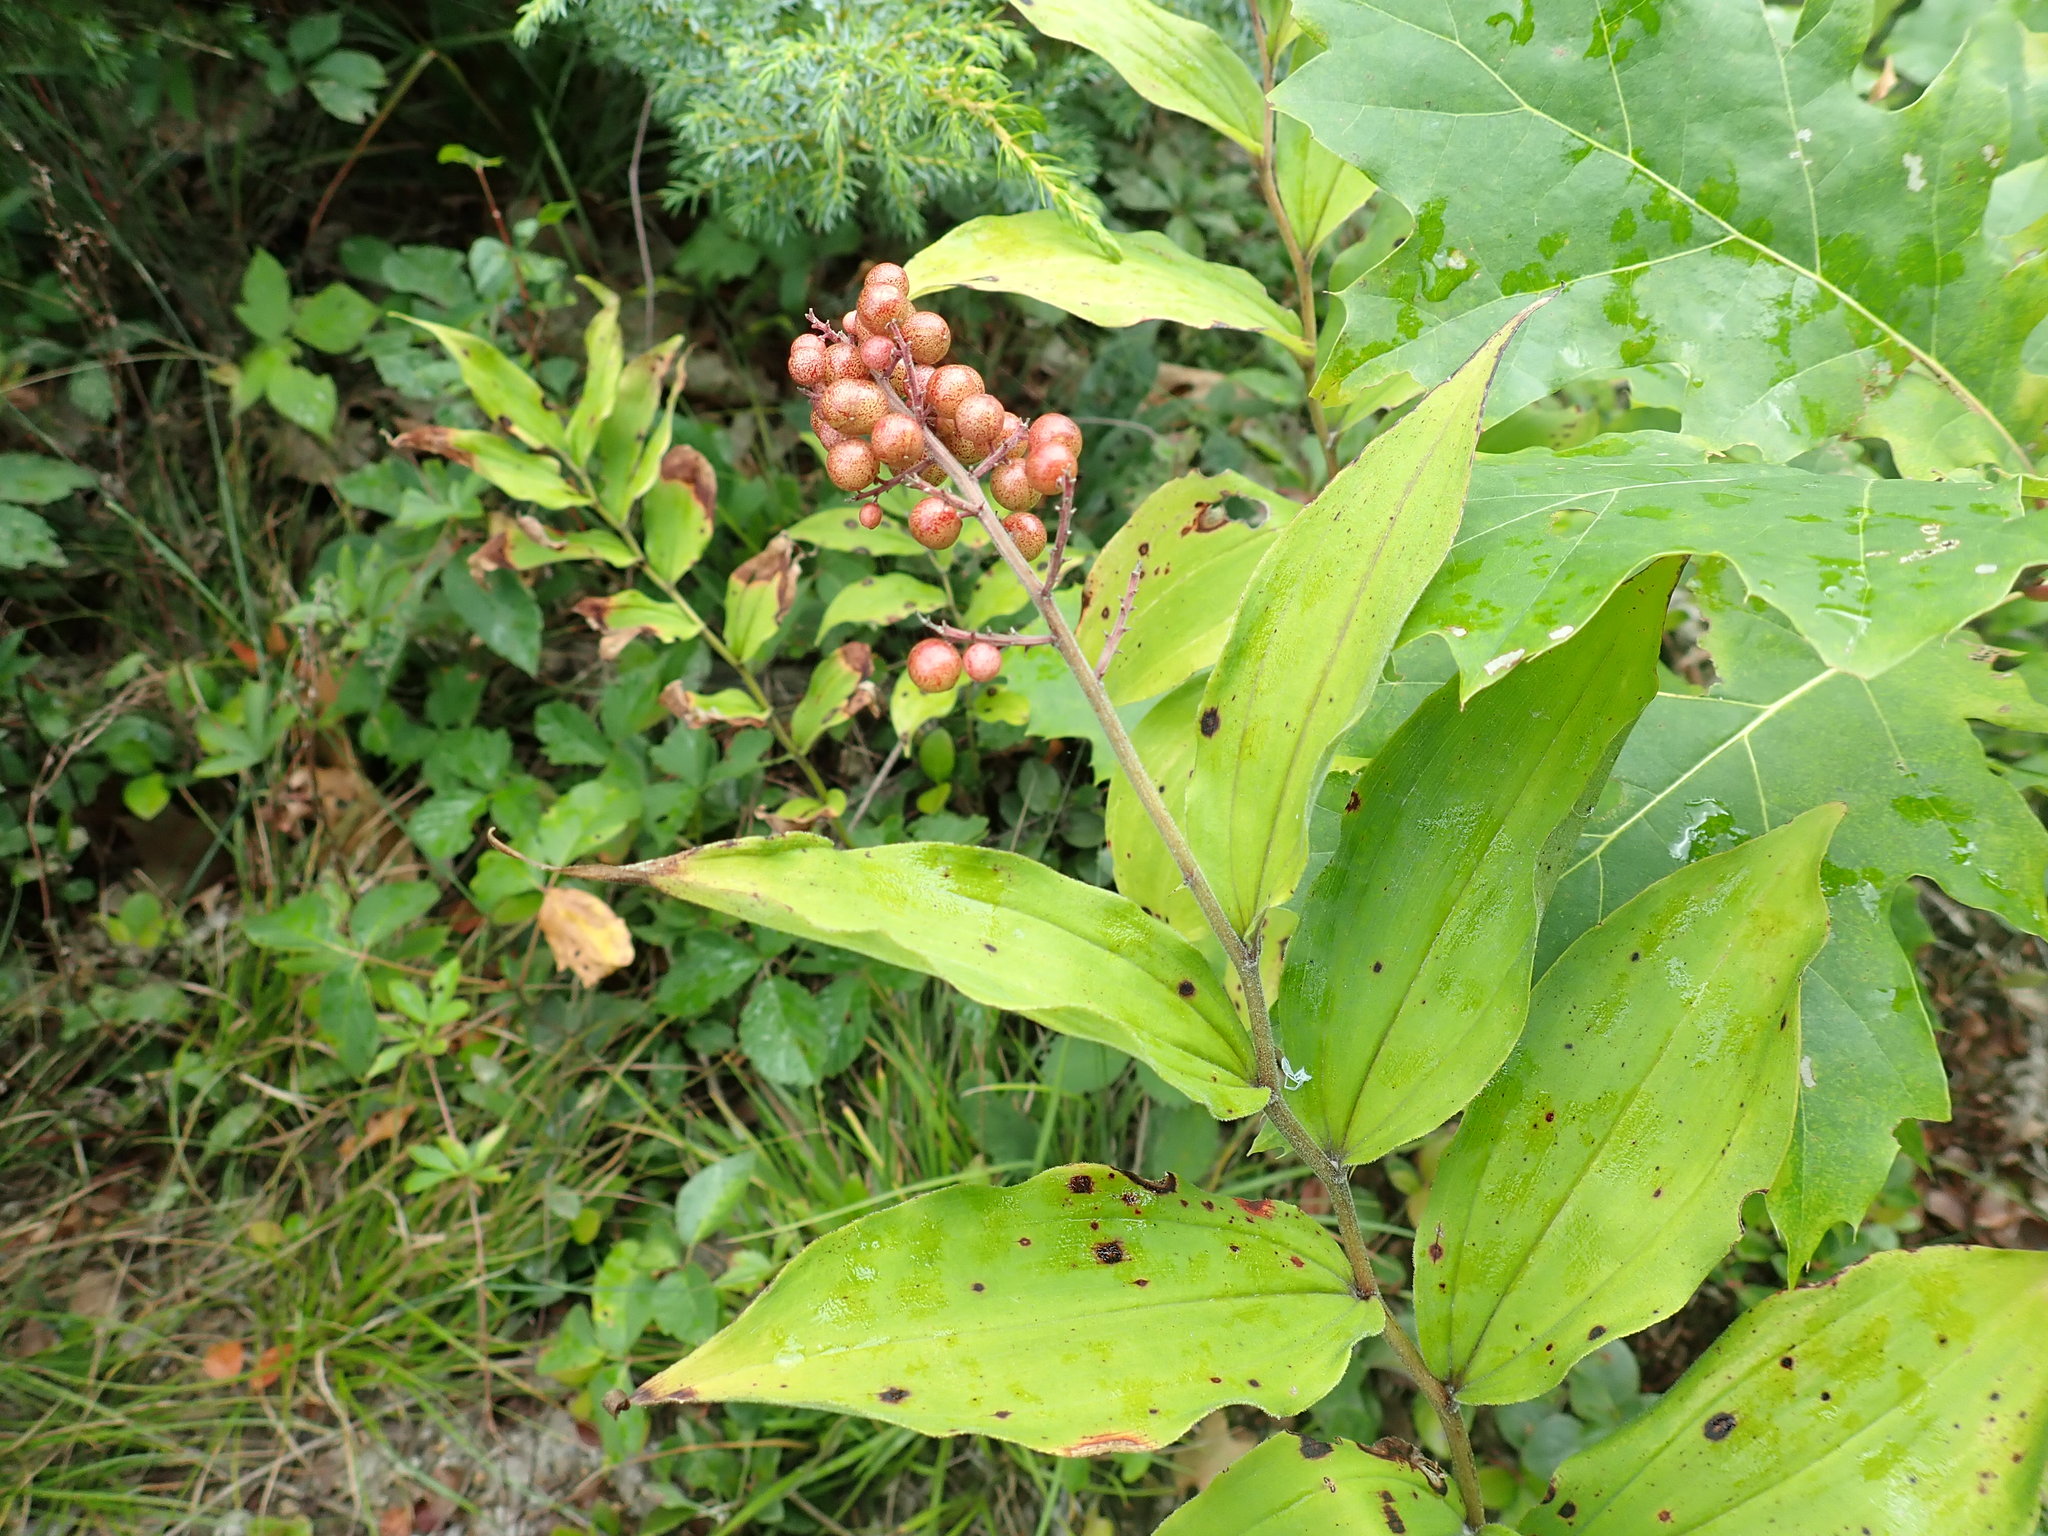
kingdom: Plantae
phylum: Tracheophyta
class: Liliopsida
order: Asparagales
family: Asparagaceae
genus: Maianthemum
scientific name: Maianthemum racemosum
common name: False spikenard
